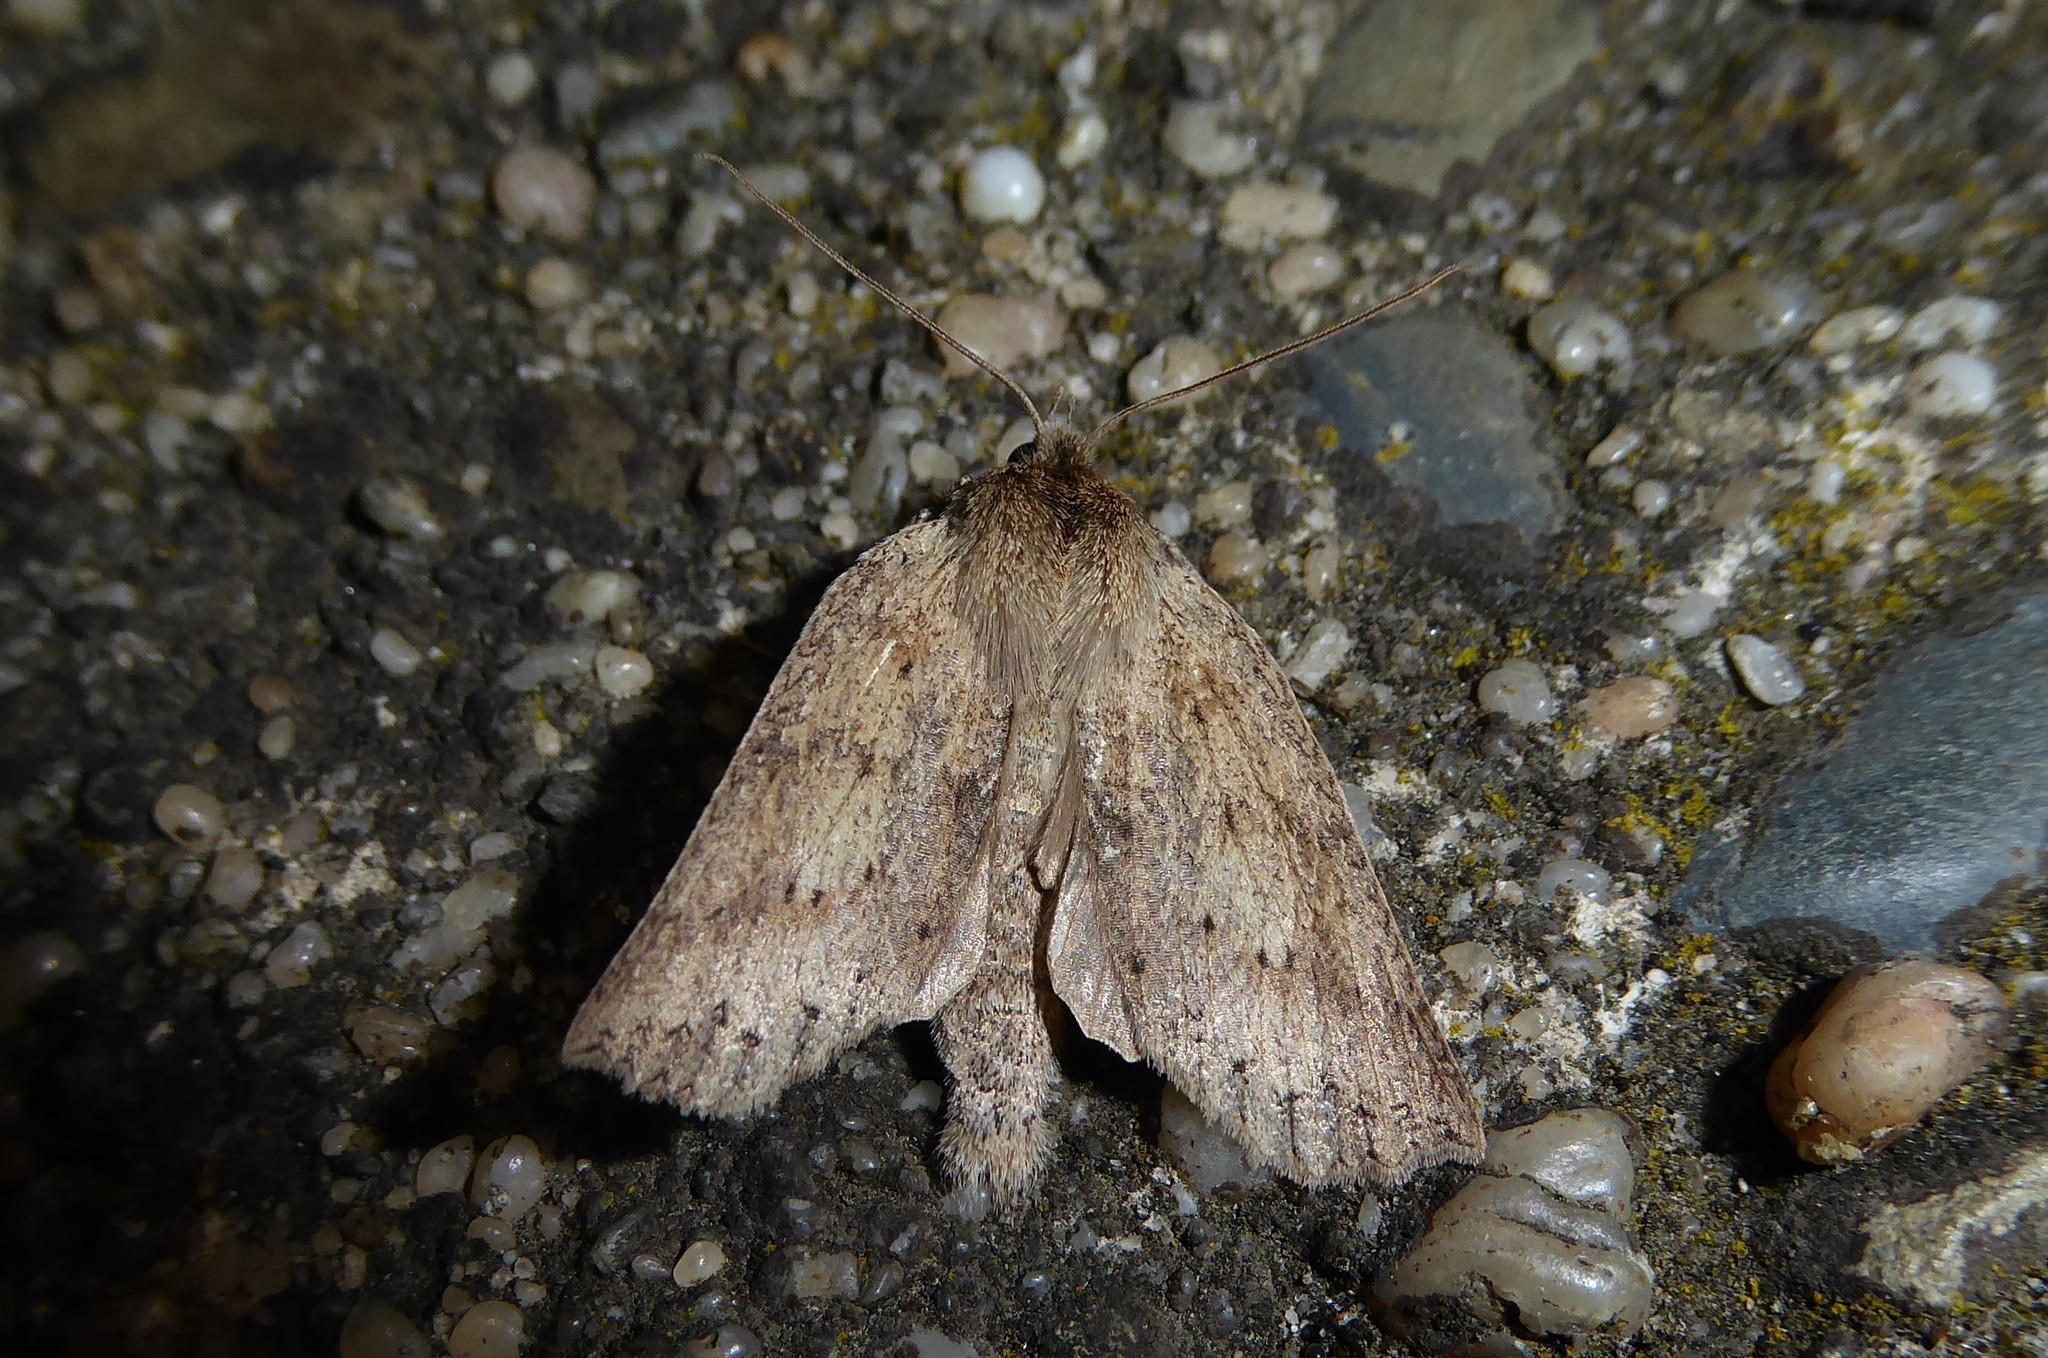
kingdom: Animalia
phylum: Arthropoda
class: Insecta
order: Lepidoptera
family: Geometridae
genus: Declana
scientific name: Declana leptomera
